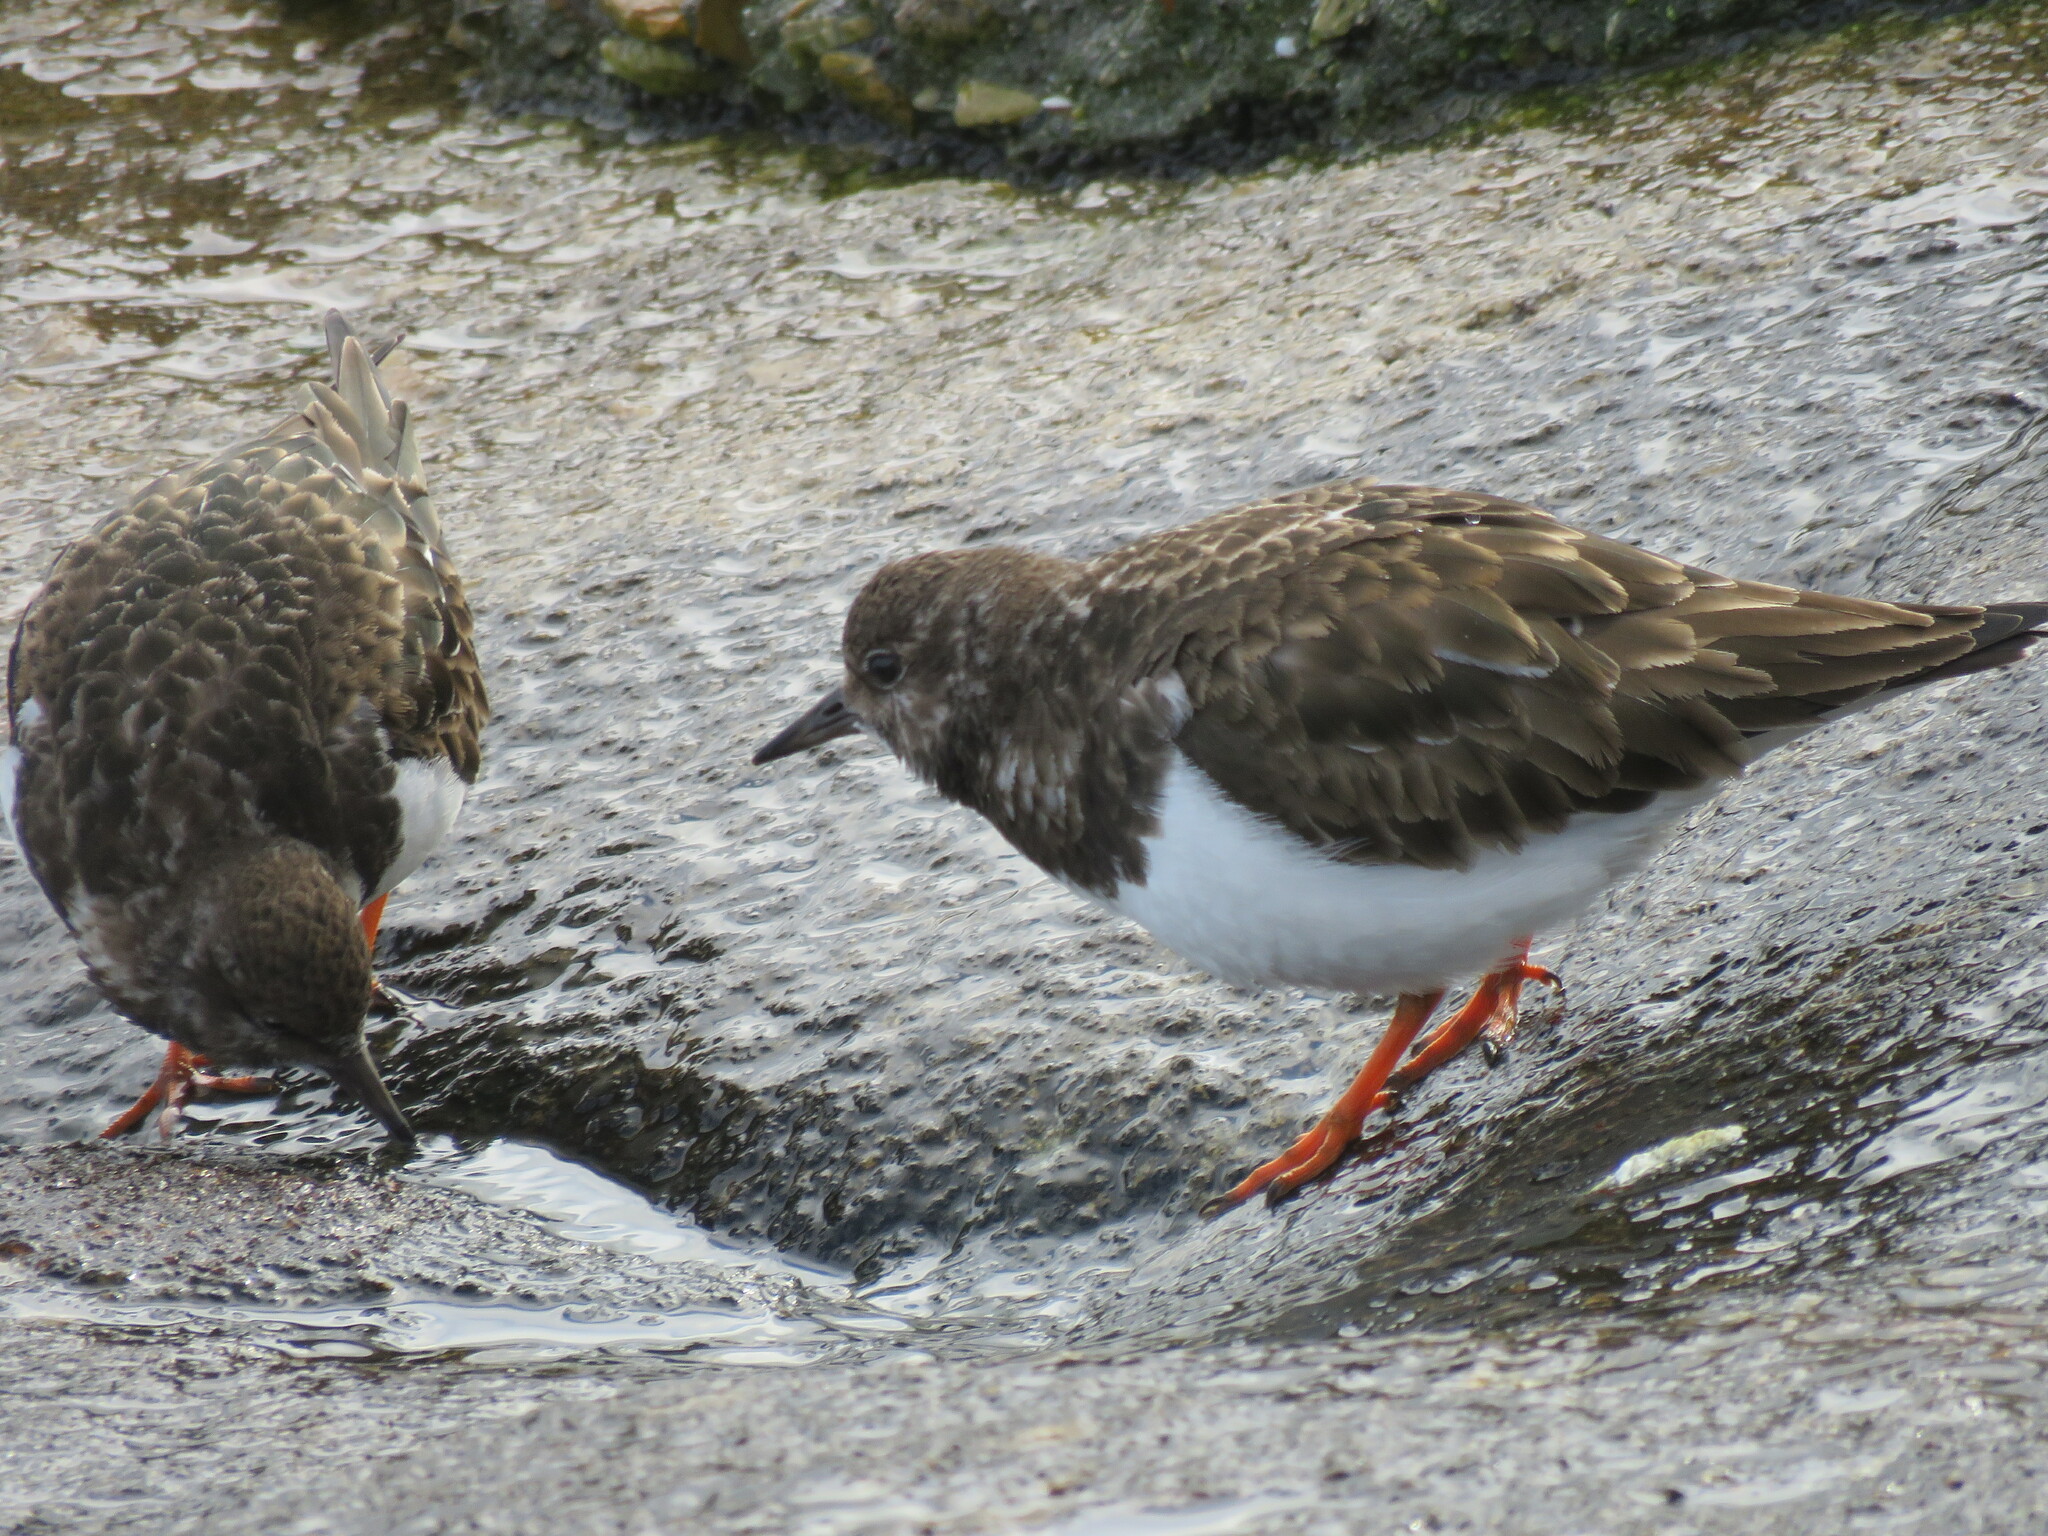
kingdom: Animalia
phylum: Chordata
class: Aves
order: Charadriiformes
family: Scolopacidae
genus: Arenaria
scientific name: Arenaria interpres
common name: Ruddy turnstone
